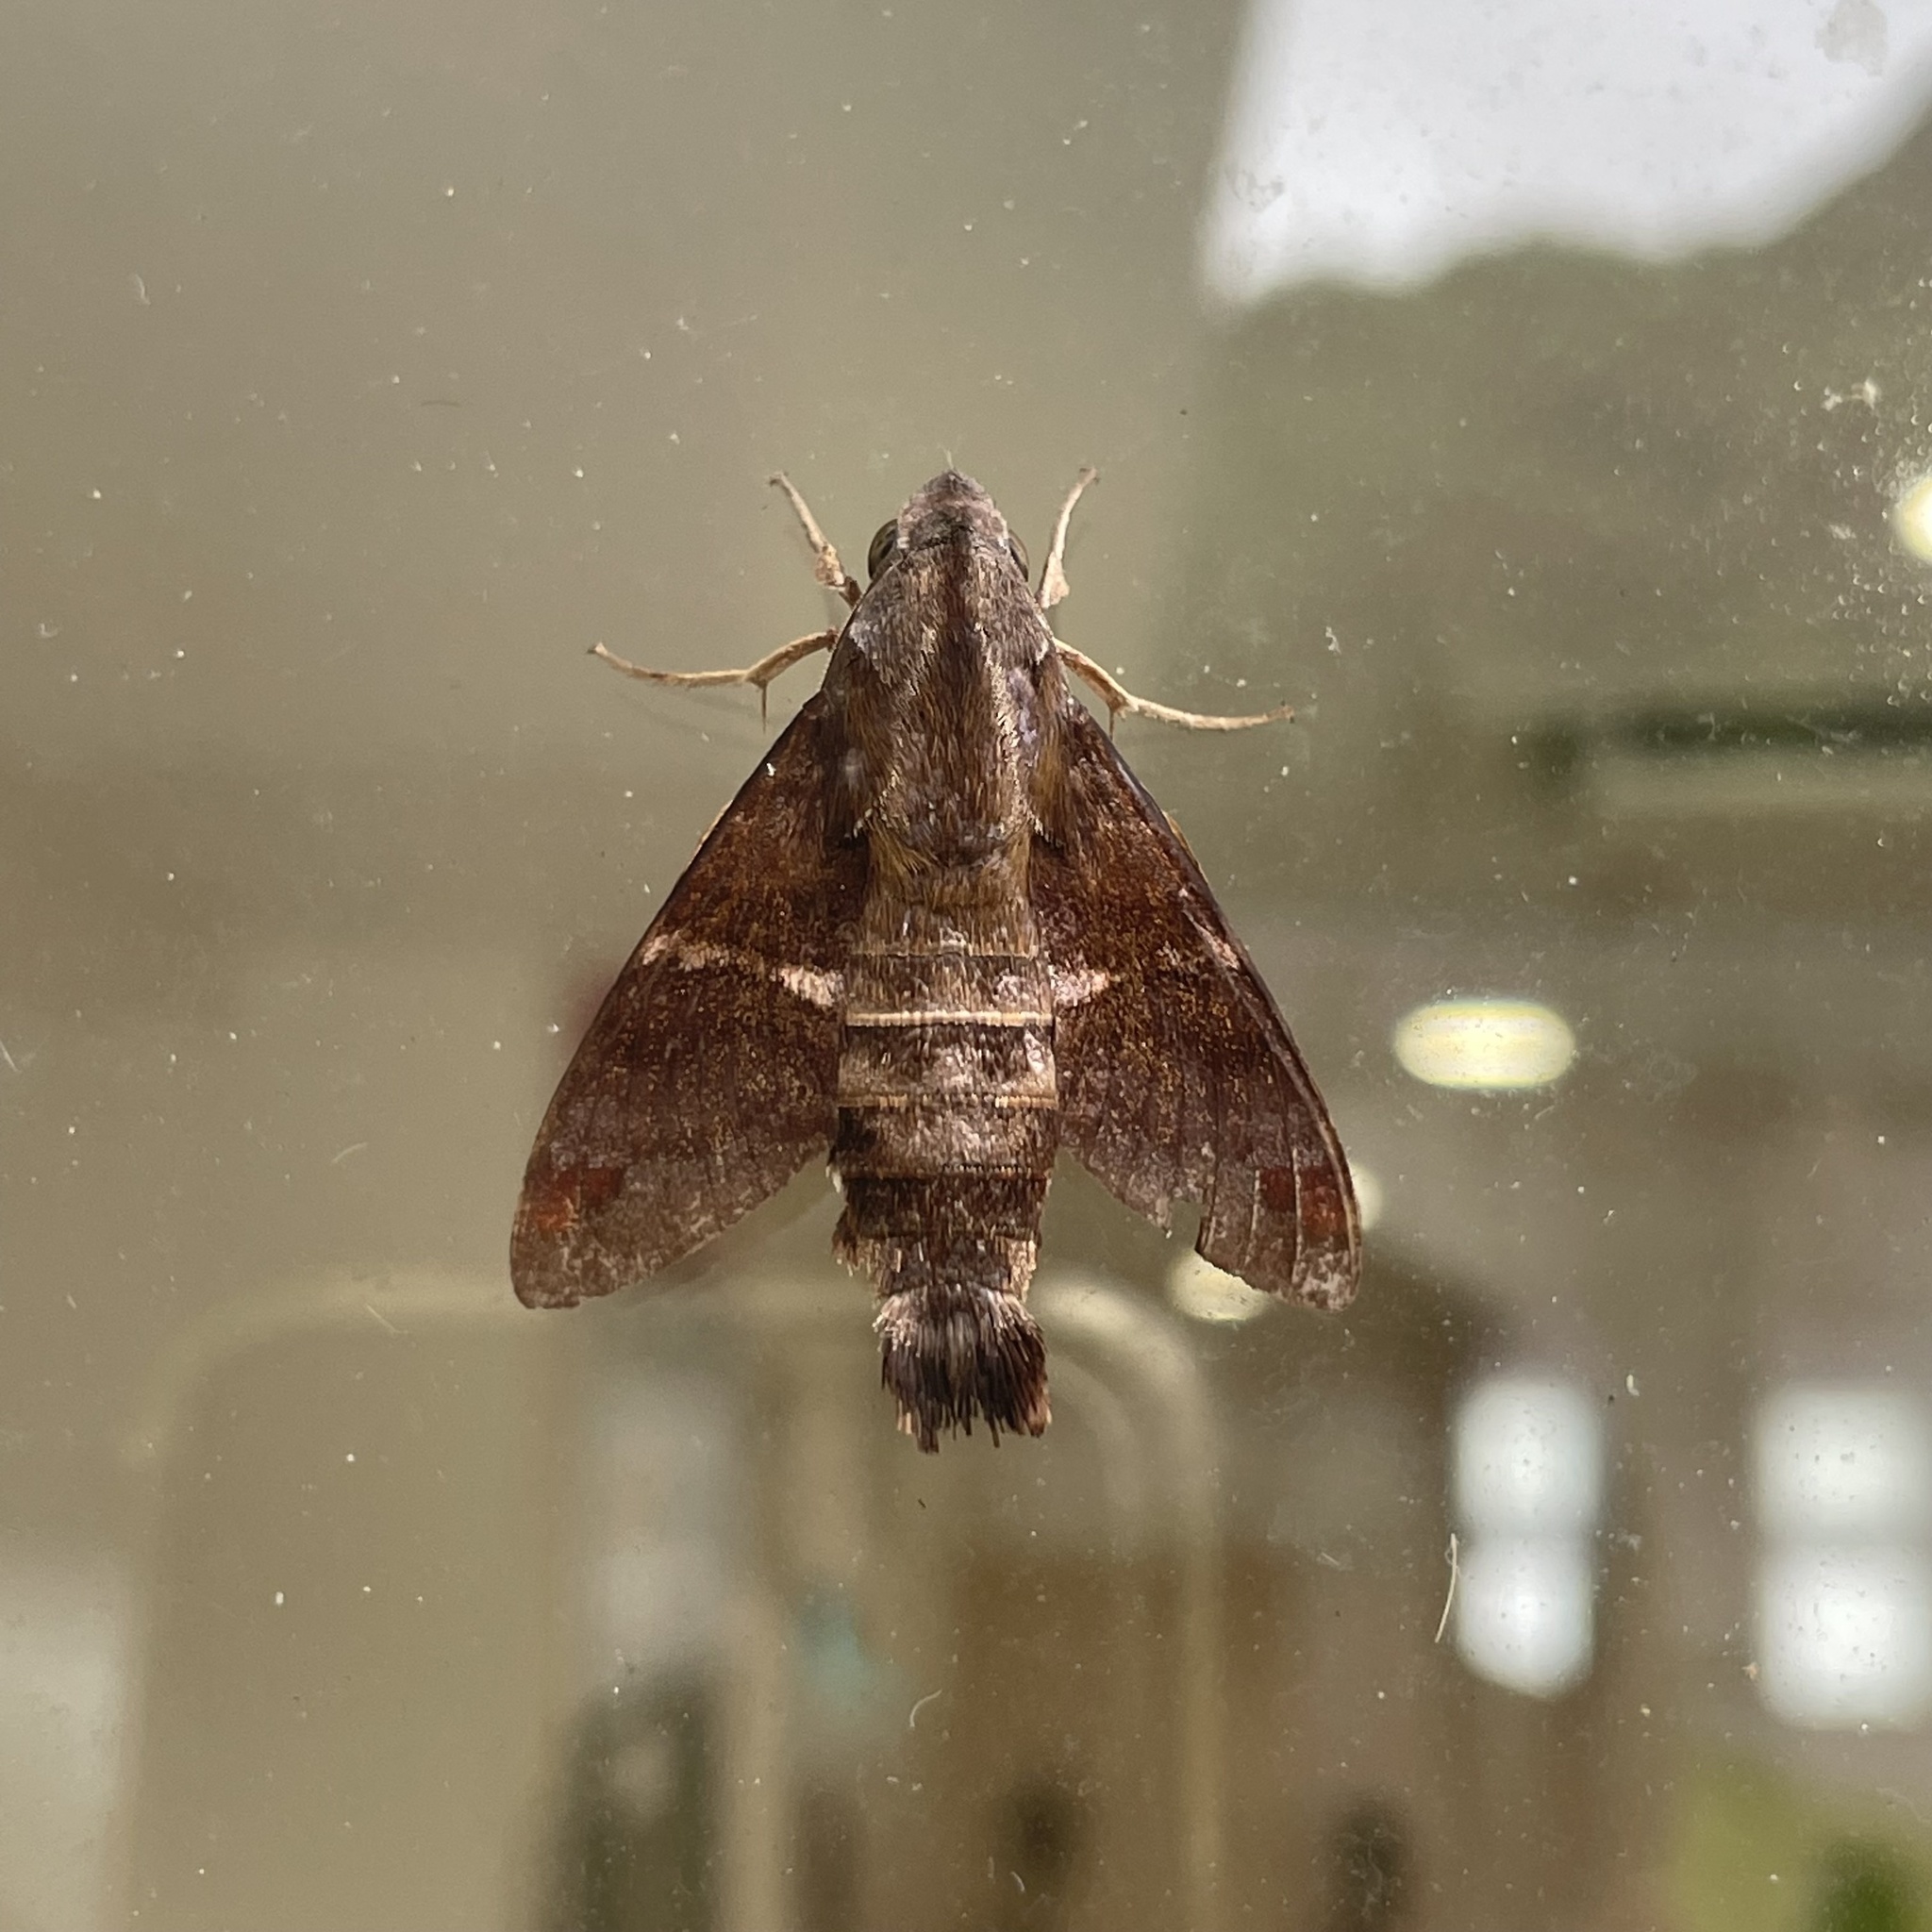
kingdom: Animalia
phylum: Arthropoda
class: Insecta
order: Lepidoptera
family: Sphingidae
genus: Macroglossum
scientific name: Macroglossum divergens
